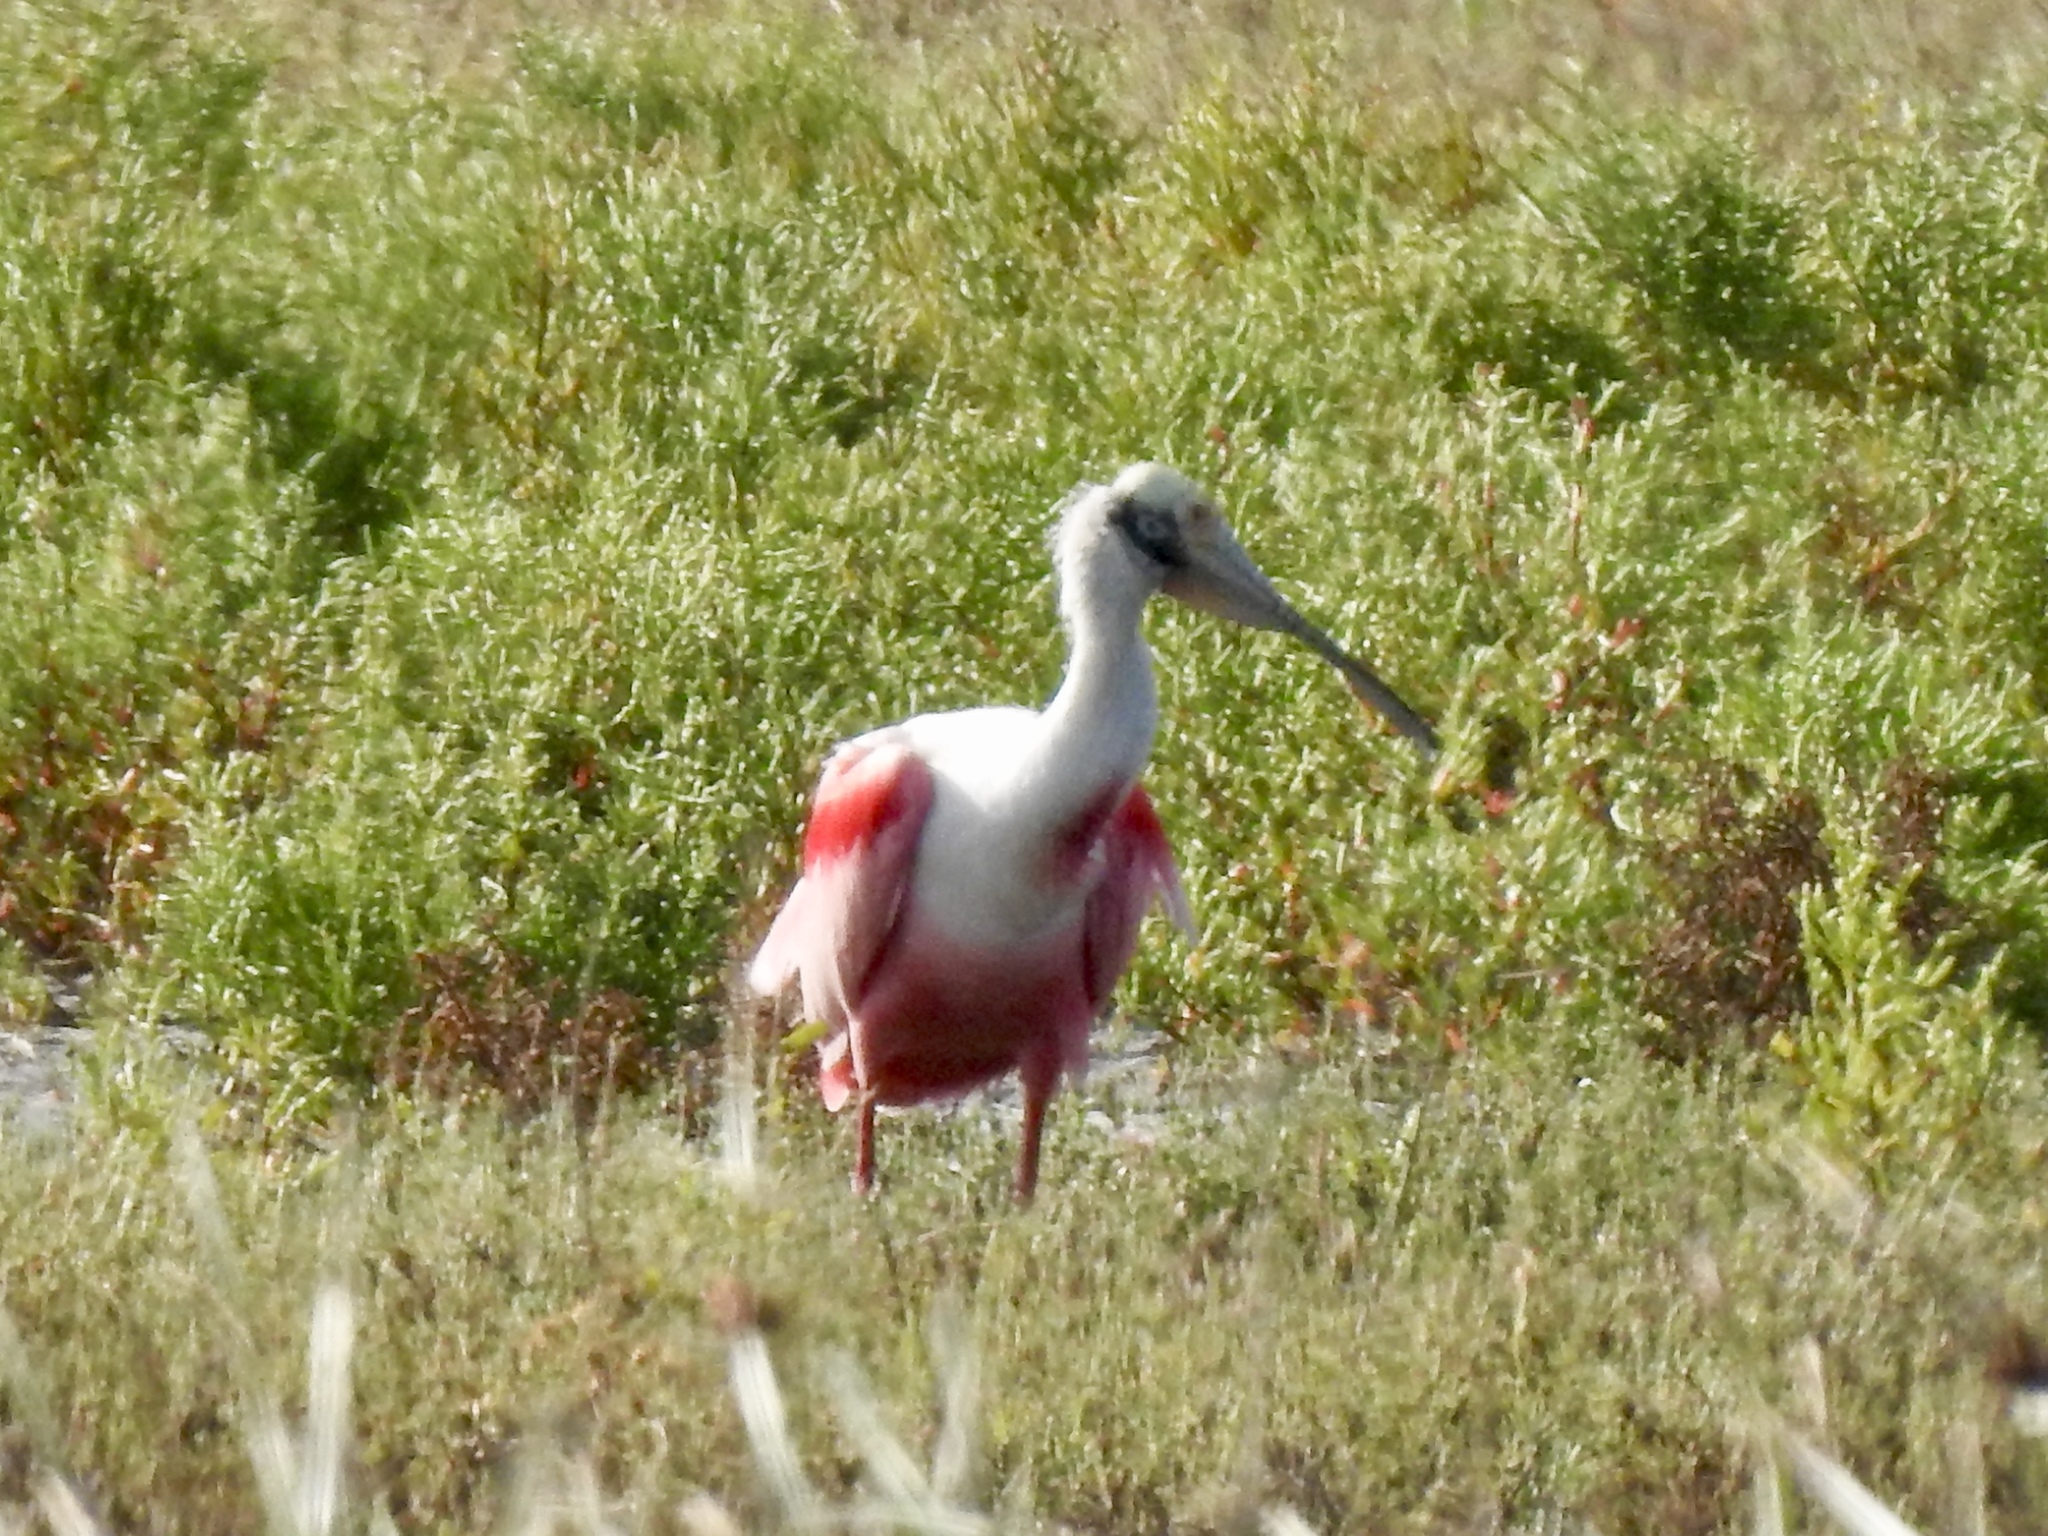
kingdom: Animalia
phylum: Chordata
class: Aves
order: Pelecaniformes
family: Threskiornithidae
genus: Platalea
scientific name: Platalea ajaja
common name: Roseate spoonbill
